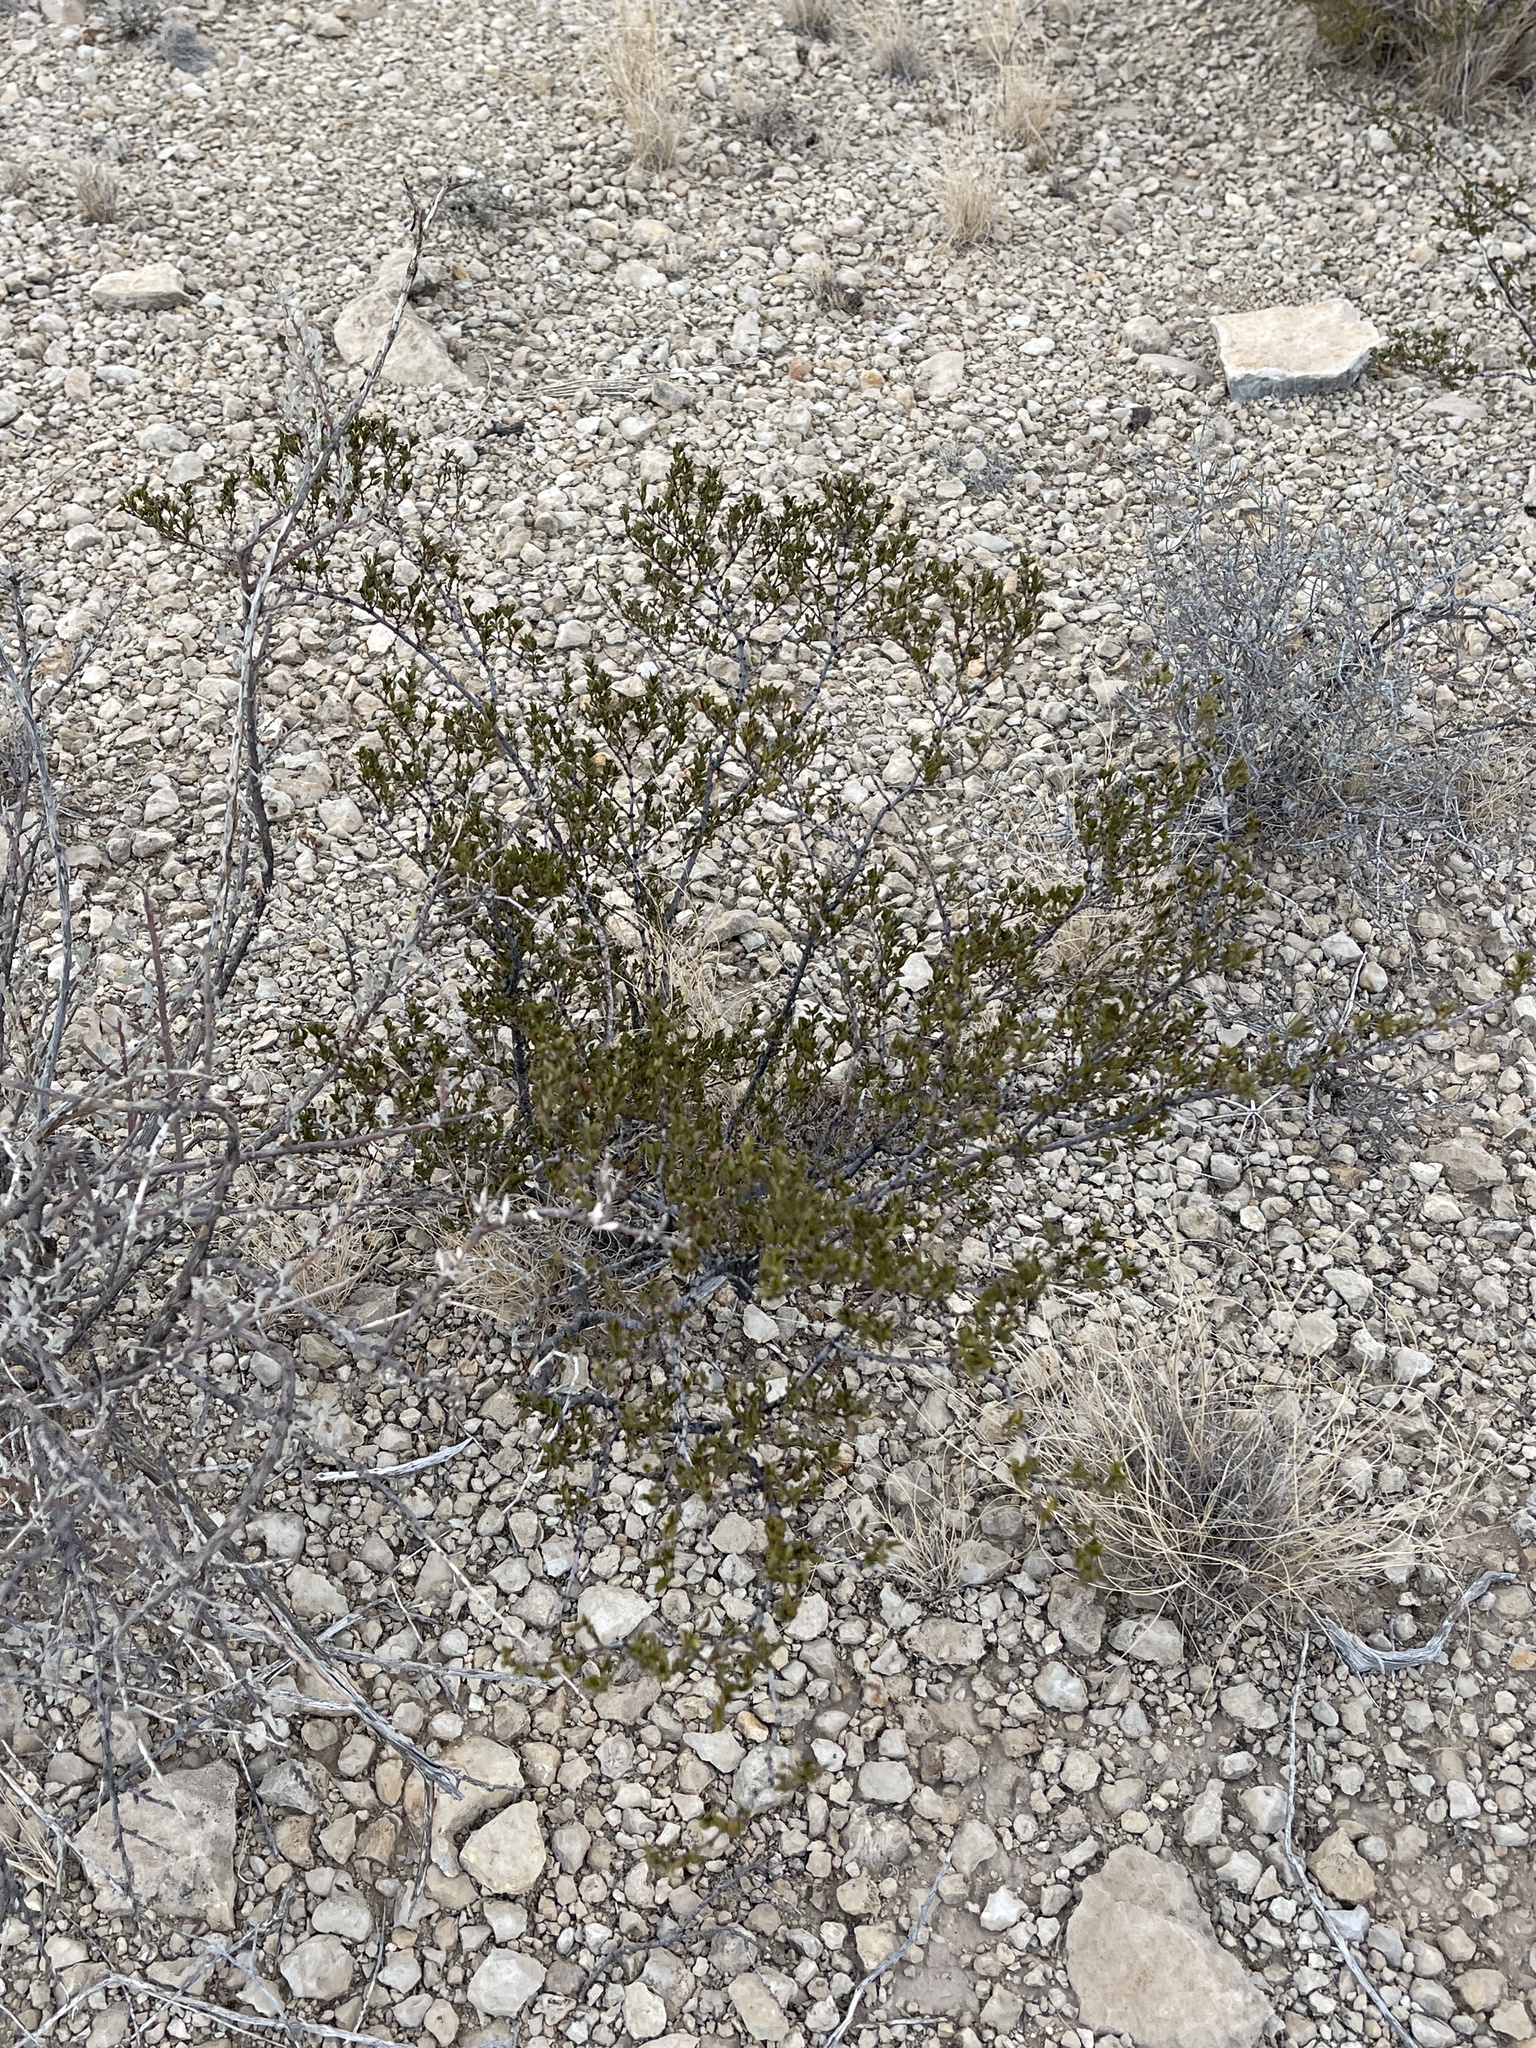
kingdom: Plantae
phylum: Tracheophyta
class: Magnoliopsida
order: Zygophyllales
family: Zygophyllaceae
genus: Larrea
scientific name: Larrea tridentata
